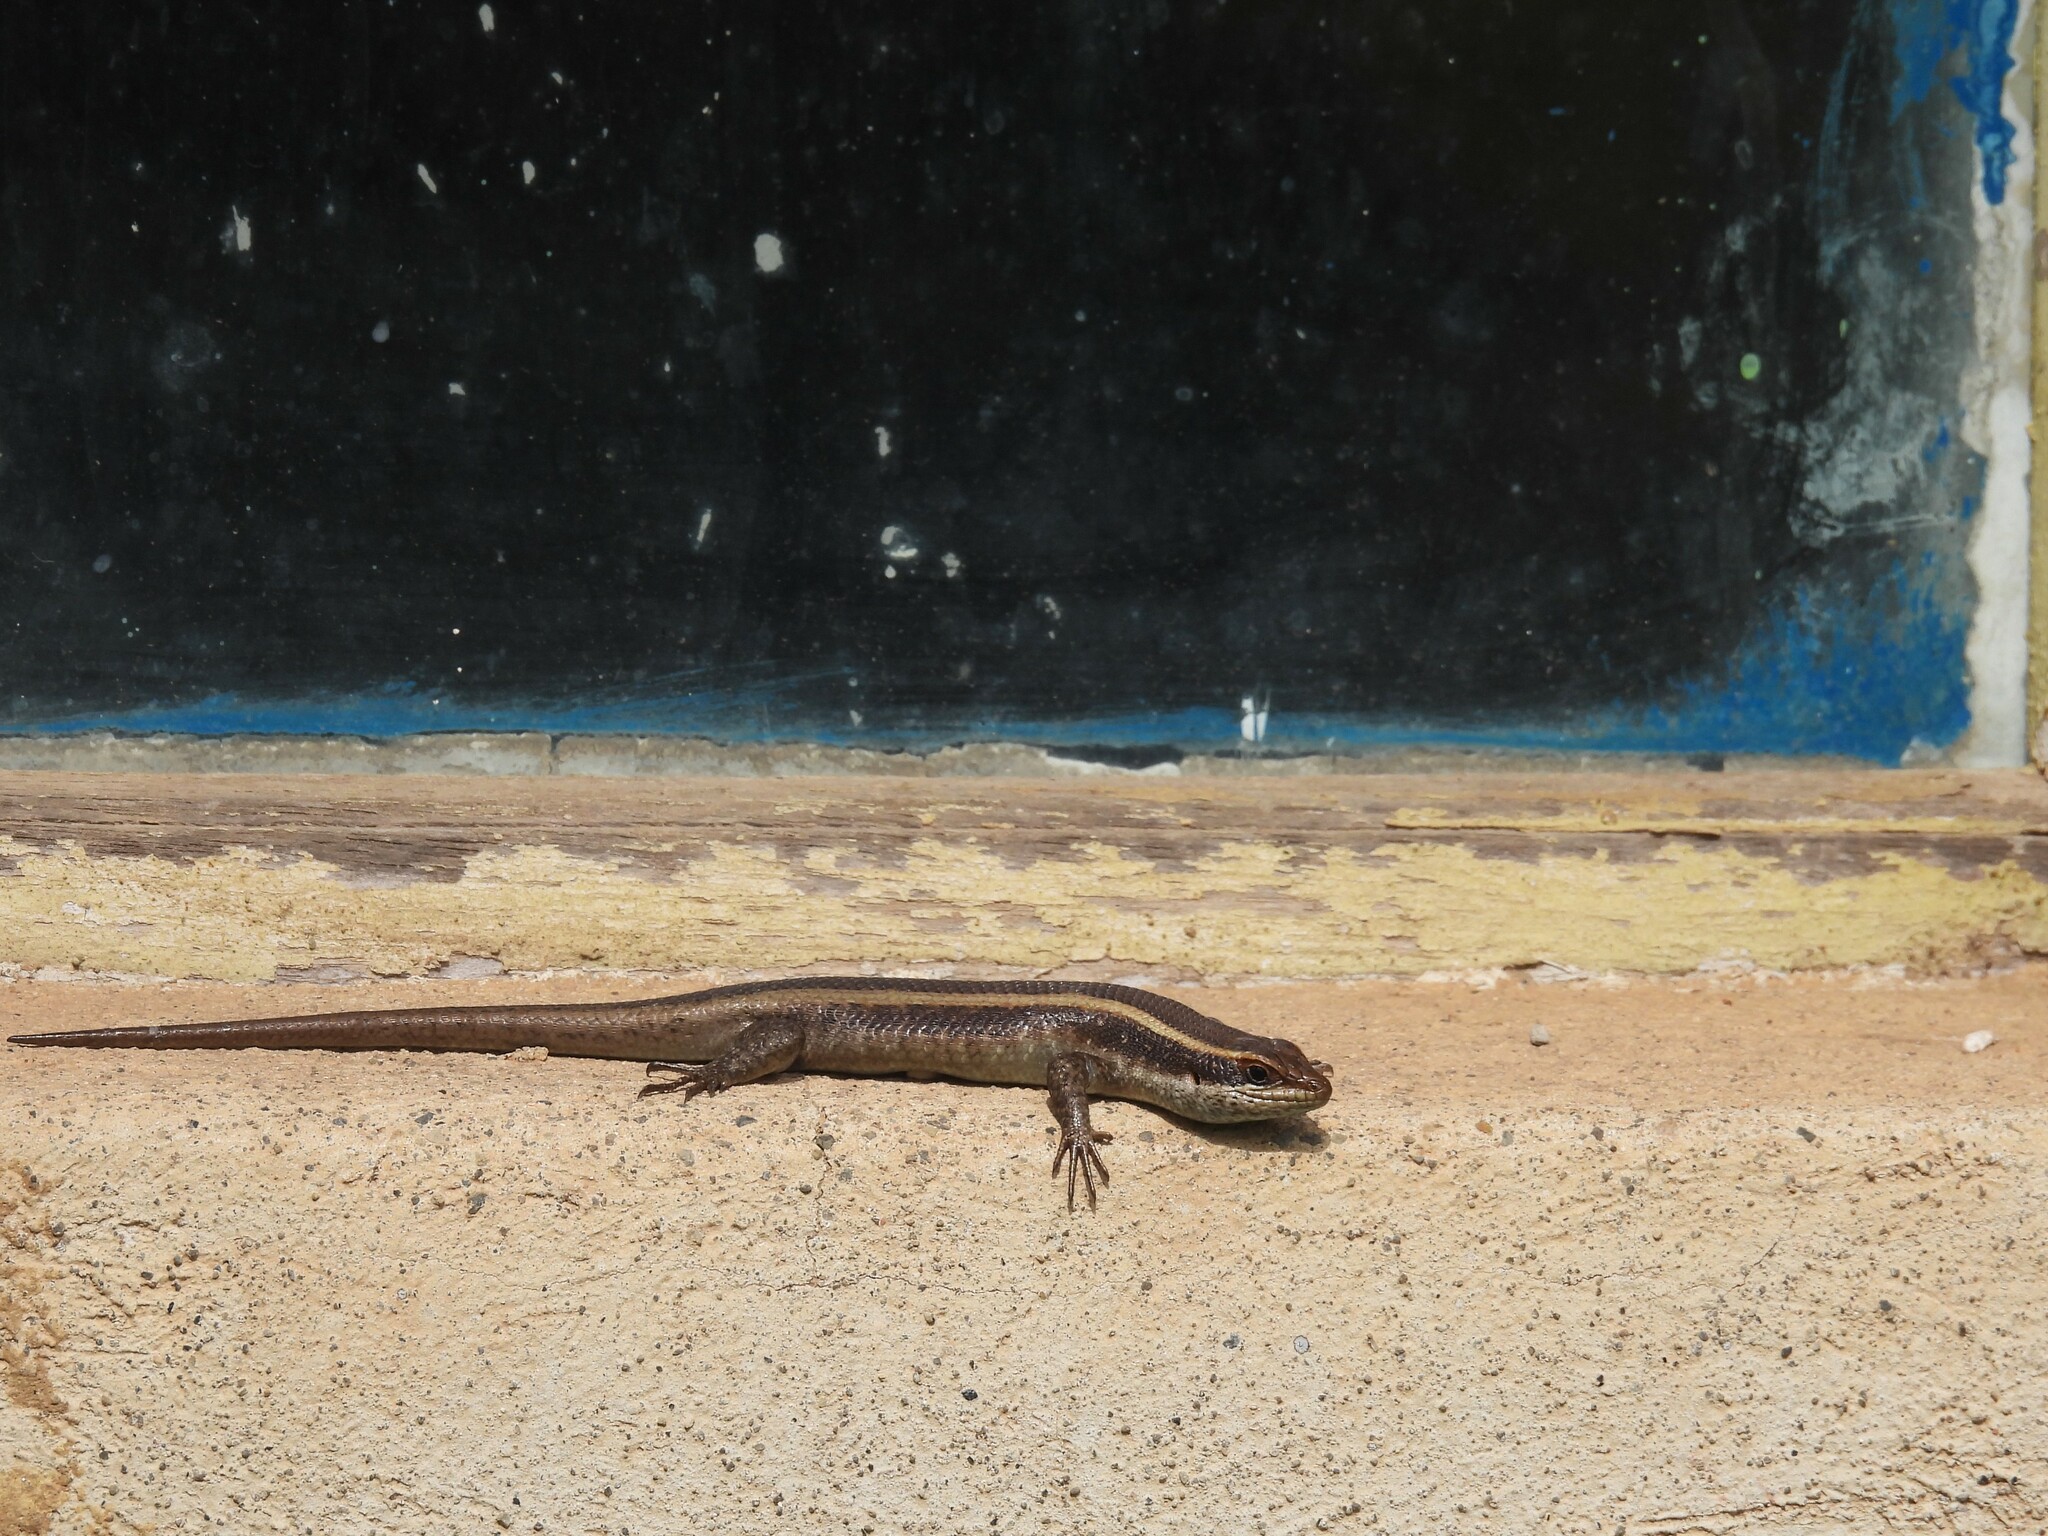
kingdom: Animalia
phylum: Chordata
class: Squamata
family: Scincidae
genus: Trachylepis
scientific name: Trachylepis striata
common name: African striped mabuya
